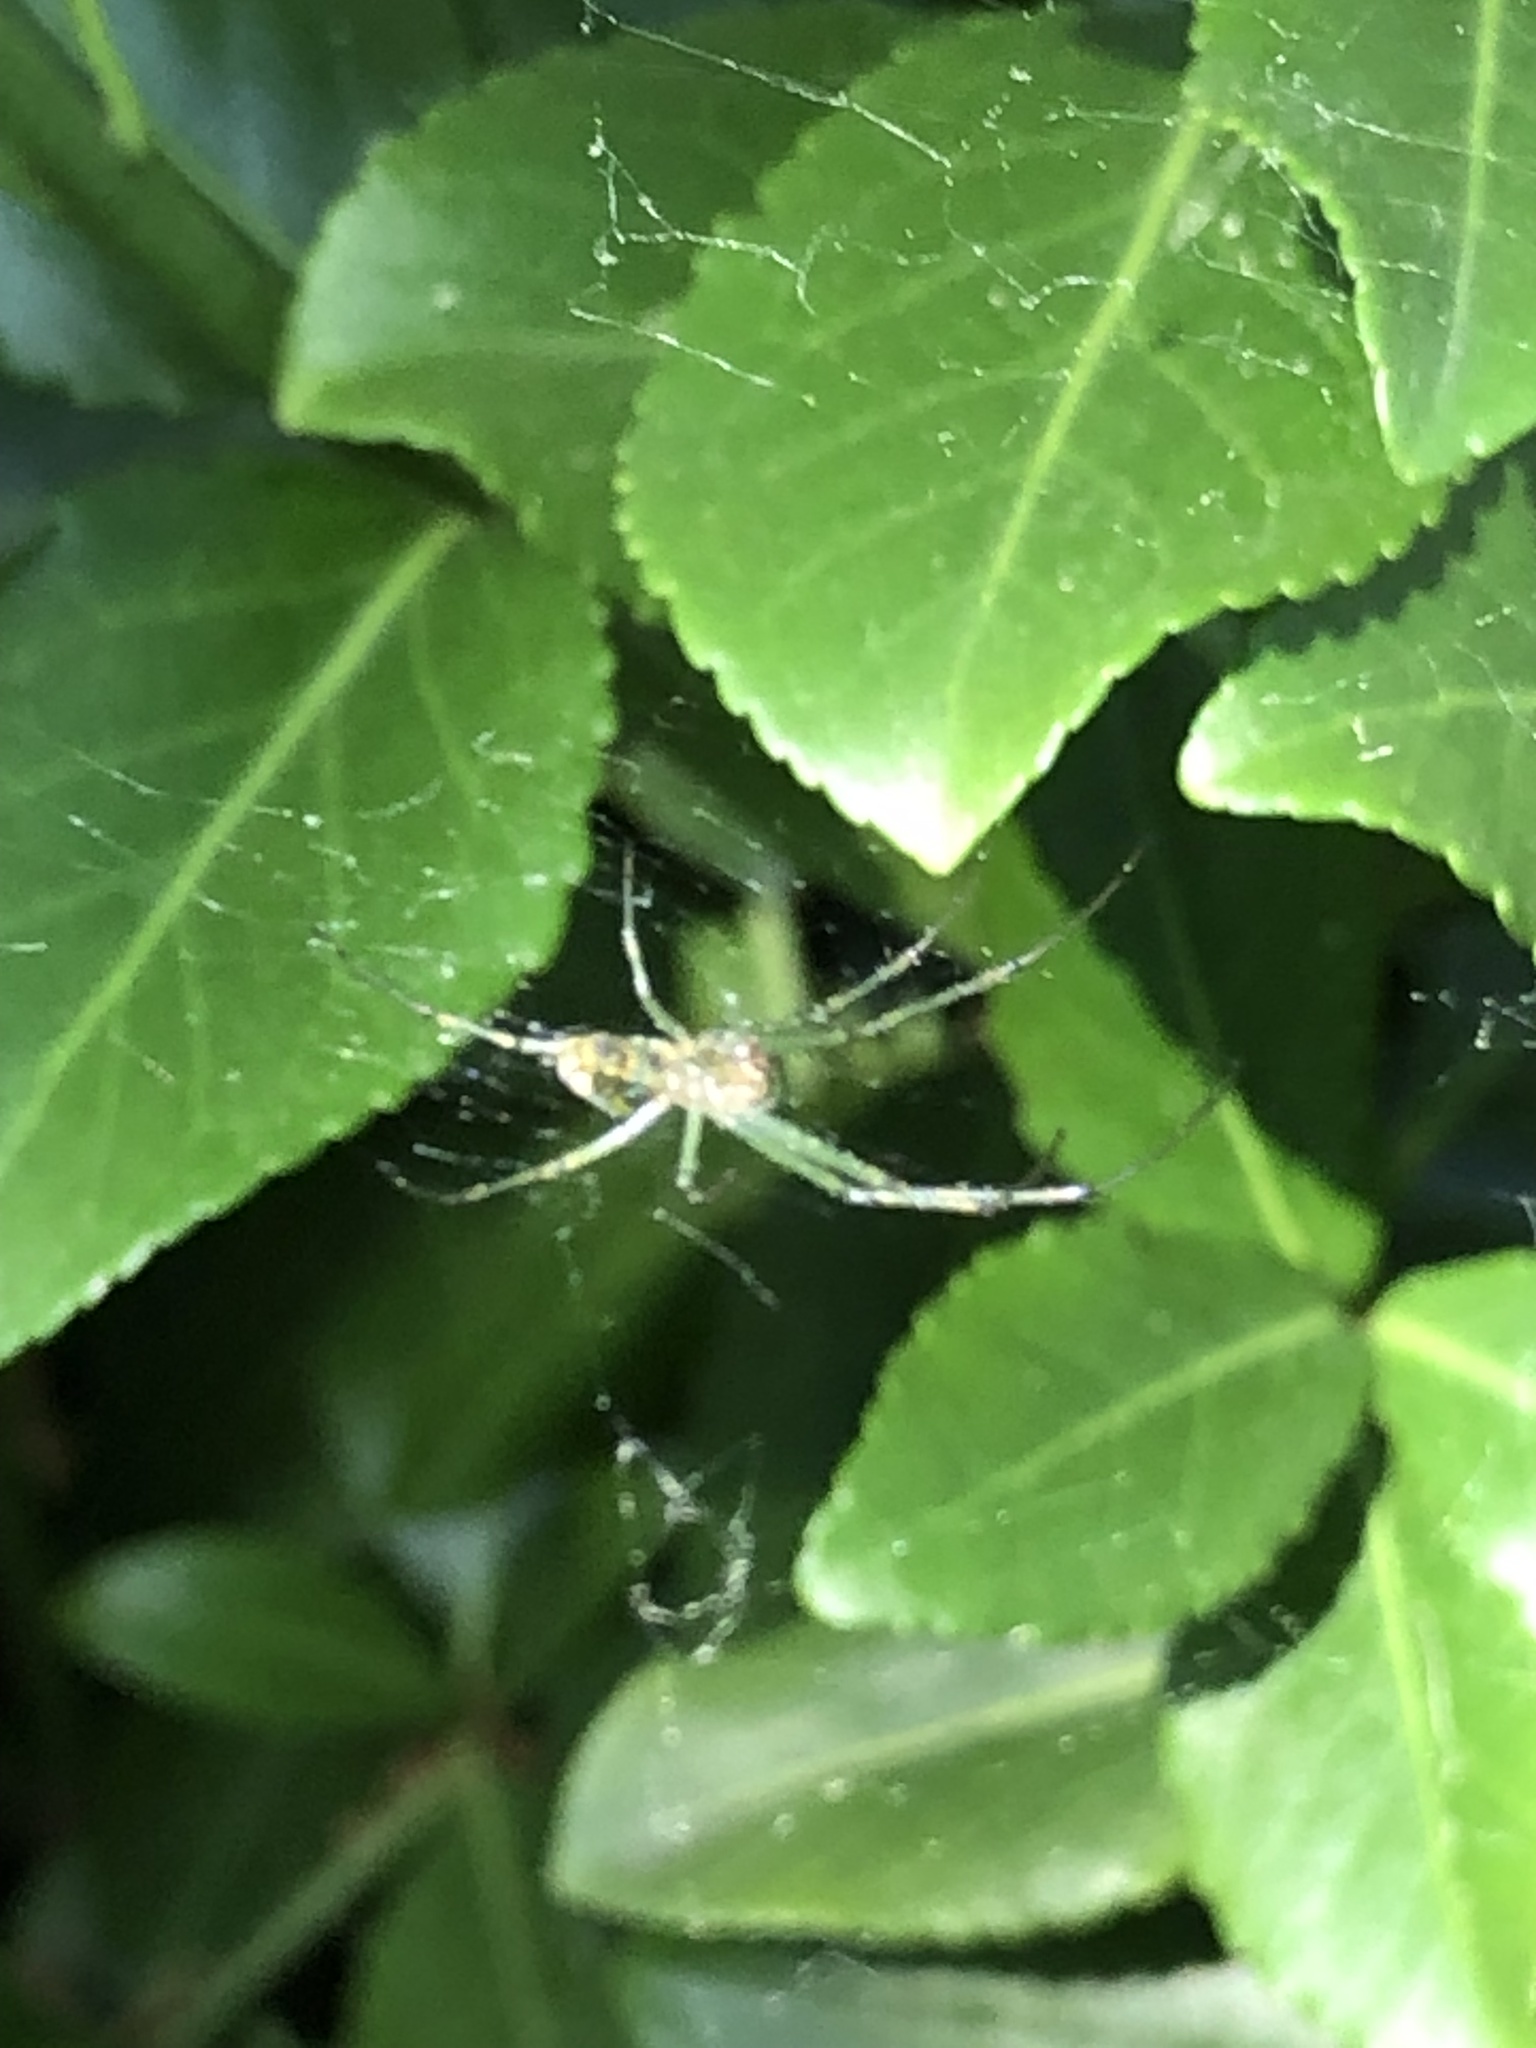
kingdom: Animalia
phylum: Arthropoda
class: Arachnida
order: Araneae
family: Tetragnathidae
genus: Leucauge
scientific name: Leucauge venusta
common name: Longjawed orb weavers
